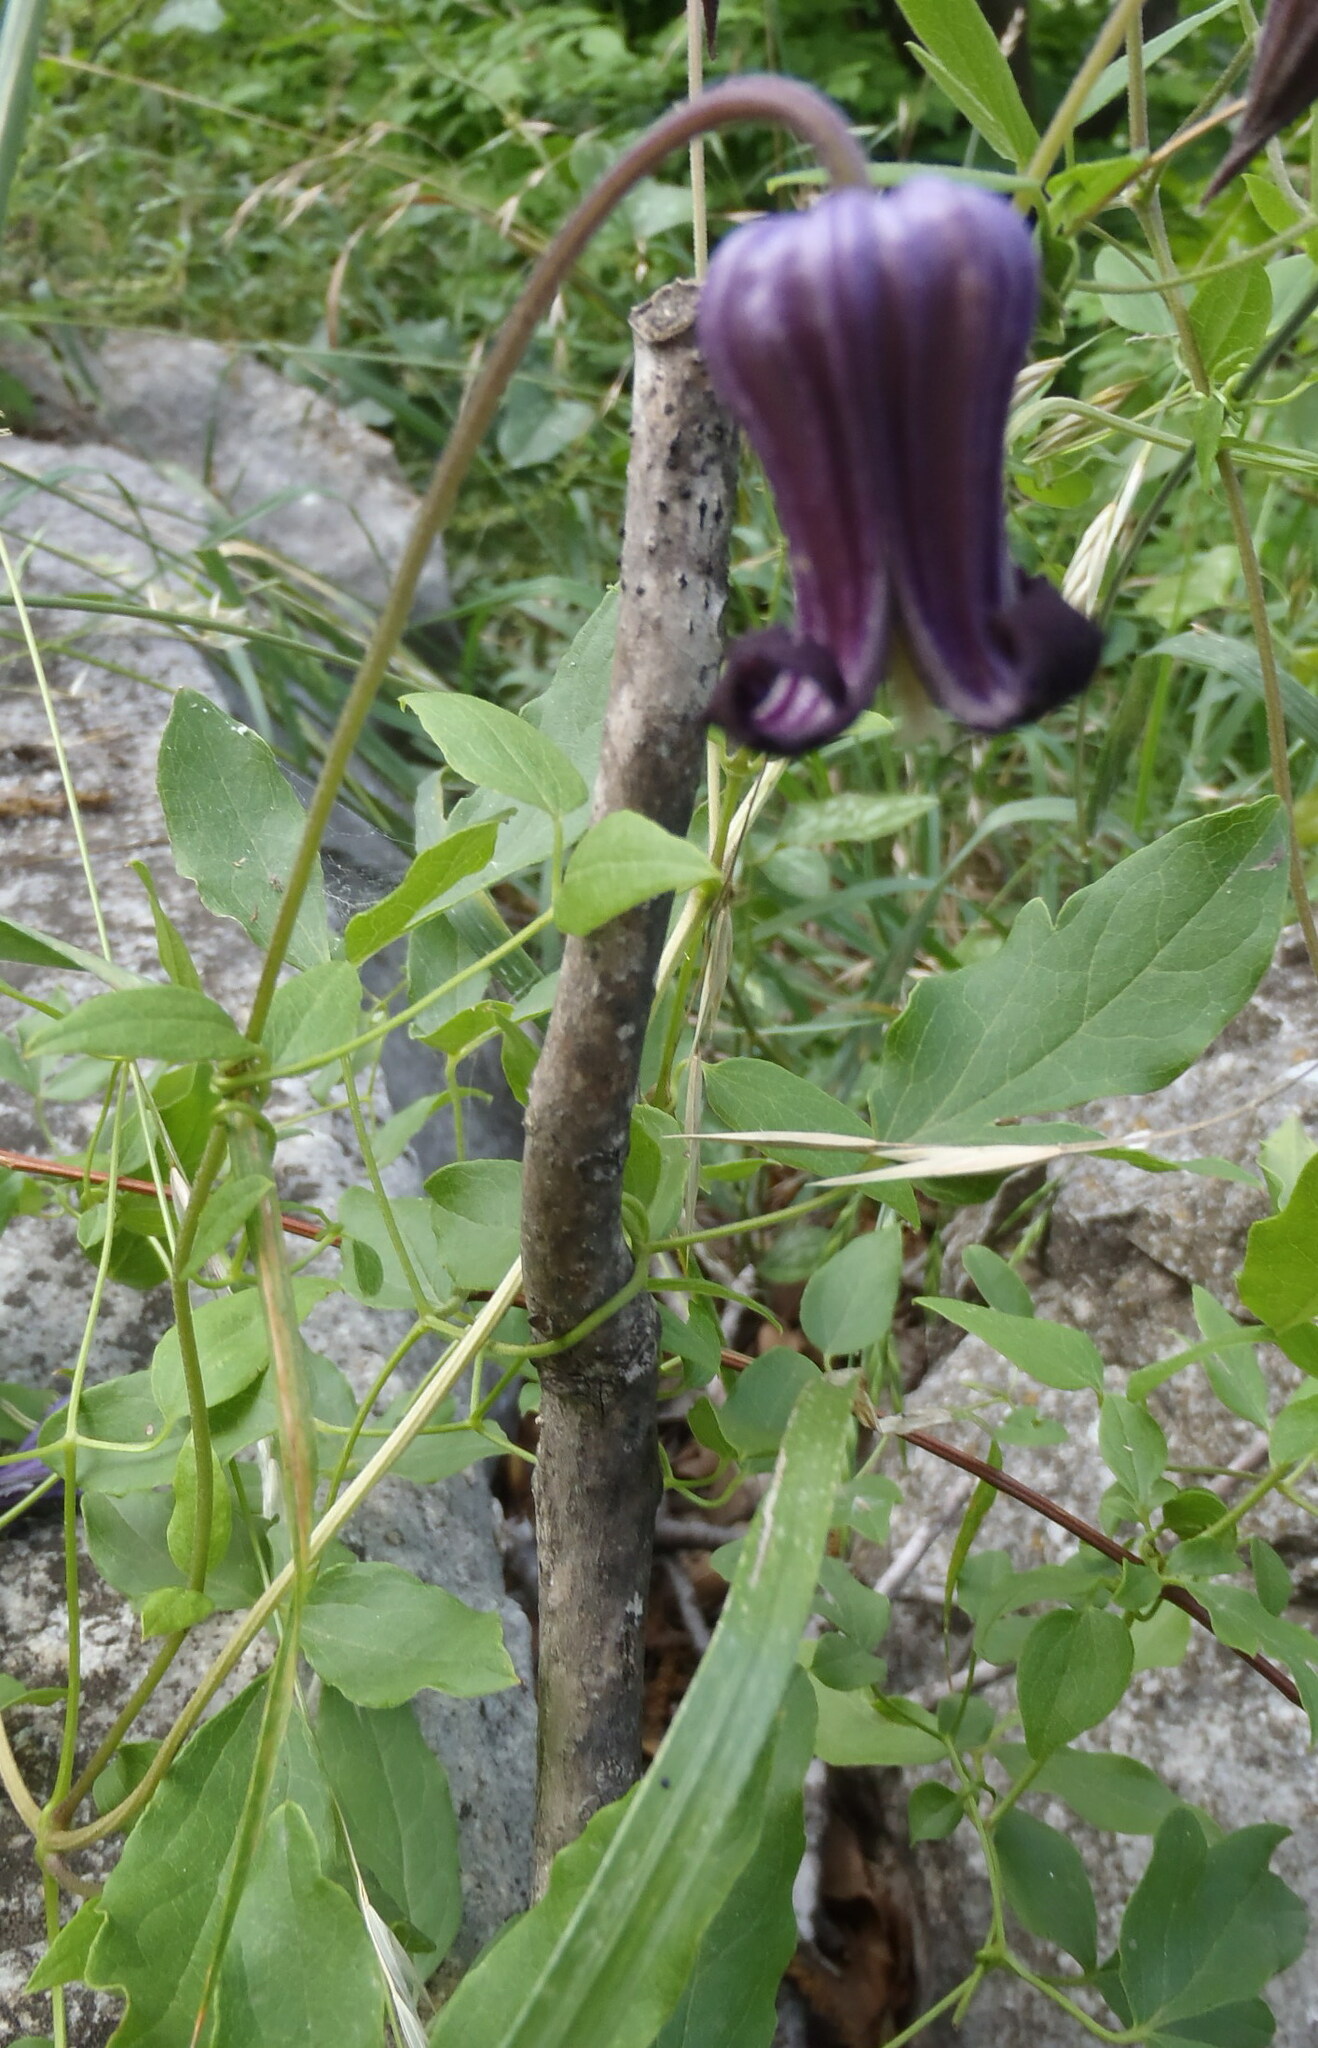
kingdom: Plantae
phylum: Tracheophyta
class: Magnoliopsida
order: Ranunculales
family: Ranunculaceae
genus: Clematis
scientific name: Clematis pitcheri
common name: Bellflower clematis
